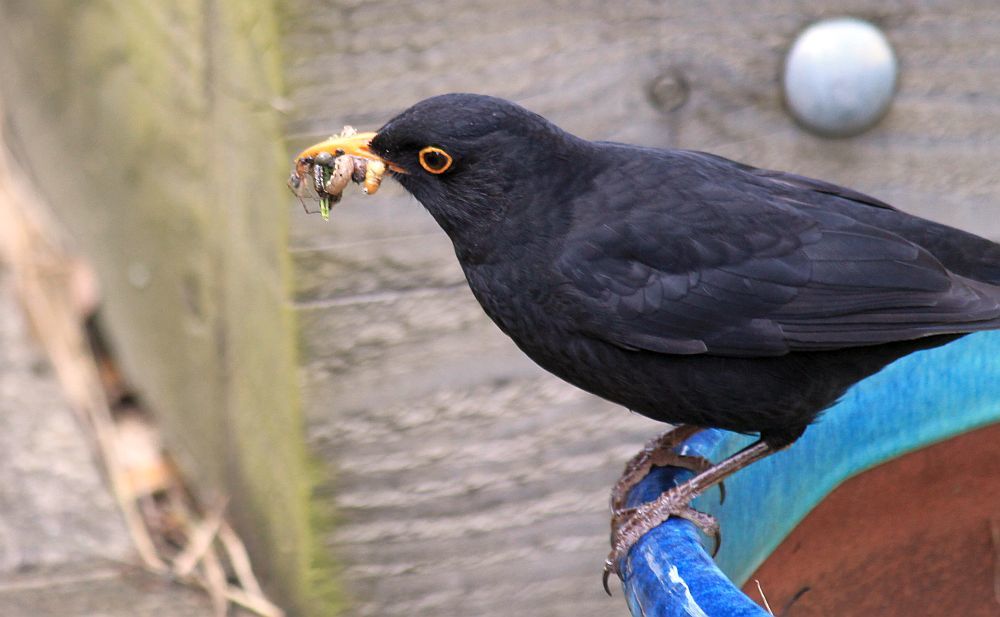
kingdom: Animalia
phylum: Chordata
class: Aves
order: Passeriformes
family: Turdidae
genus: Turdus
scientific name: Turdus merula
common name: Common blackbird
